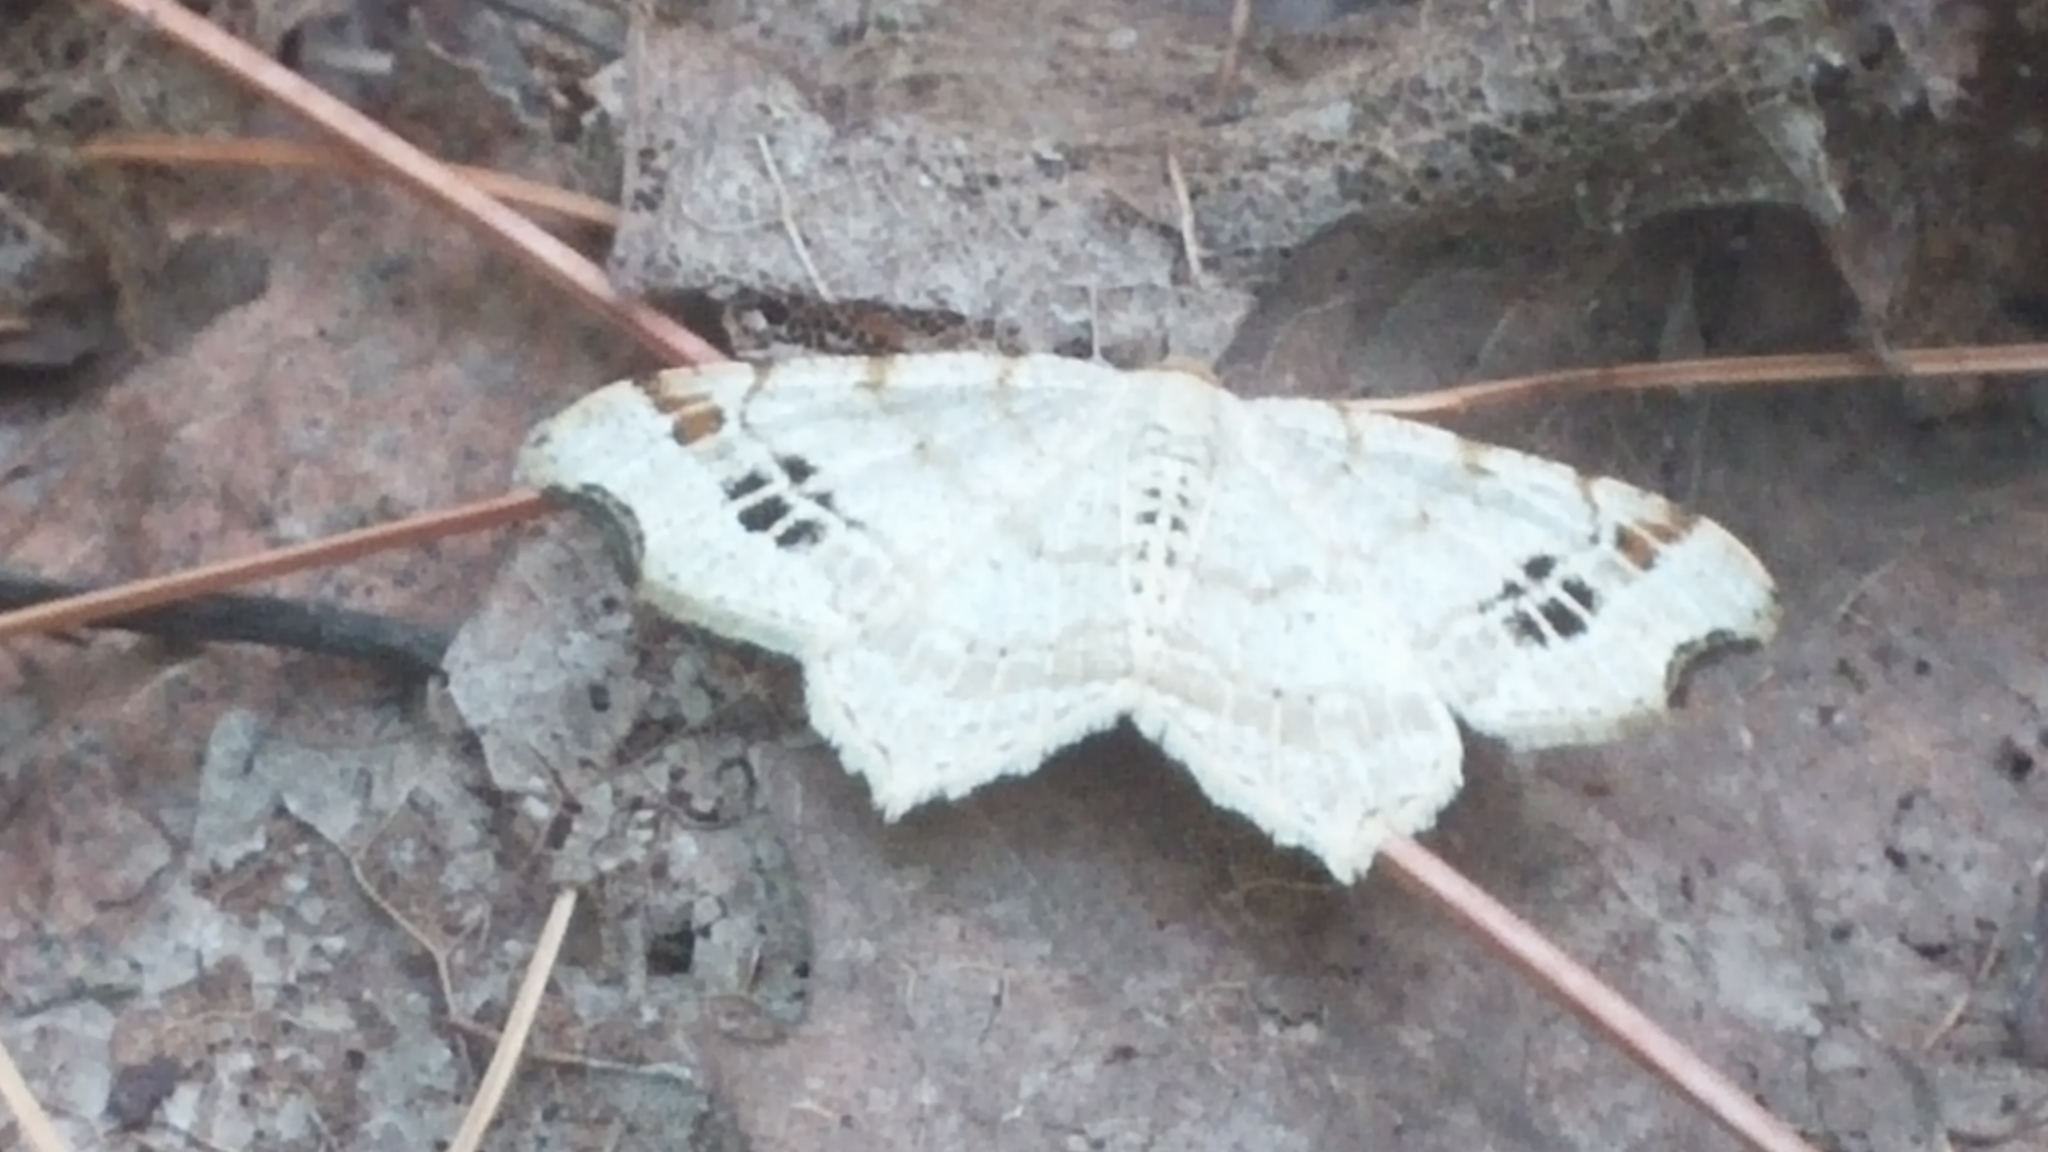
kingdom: Animalia
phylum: Arthropoda
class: Insecta
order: Lepidoptera
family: Geometridae
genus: Macaria
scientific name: Macaria aemulataria
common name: Common angle
